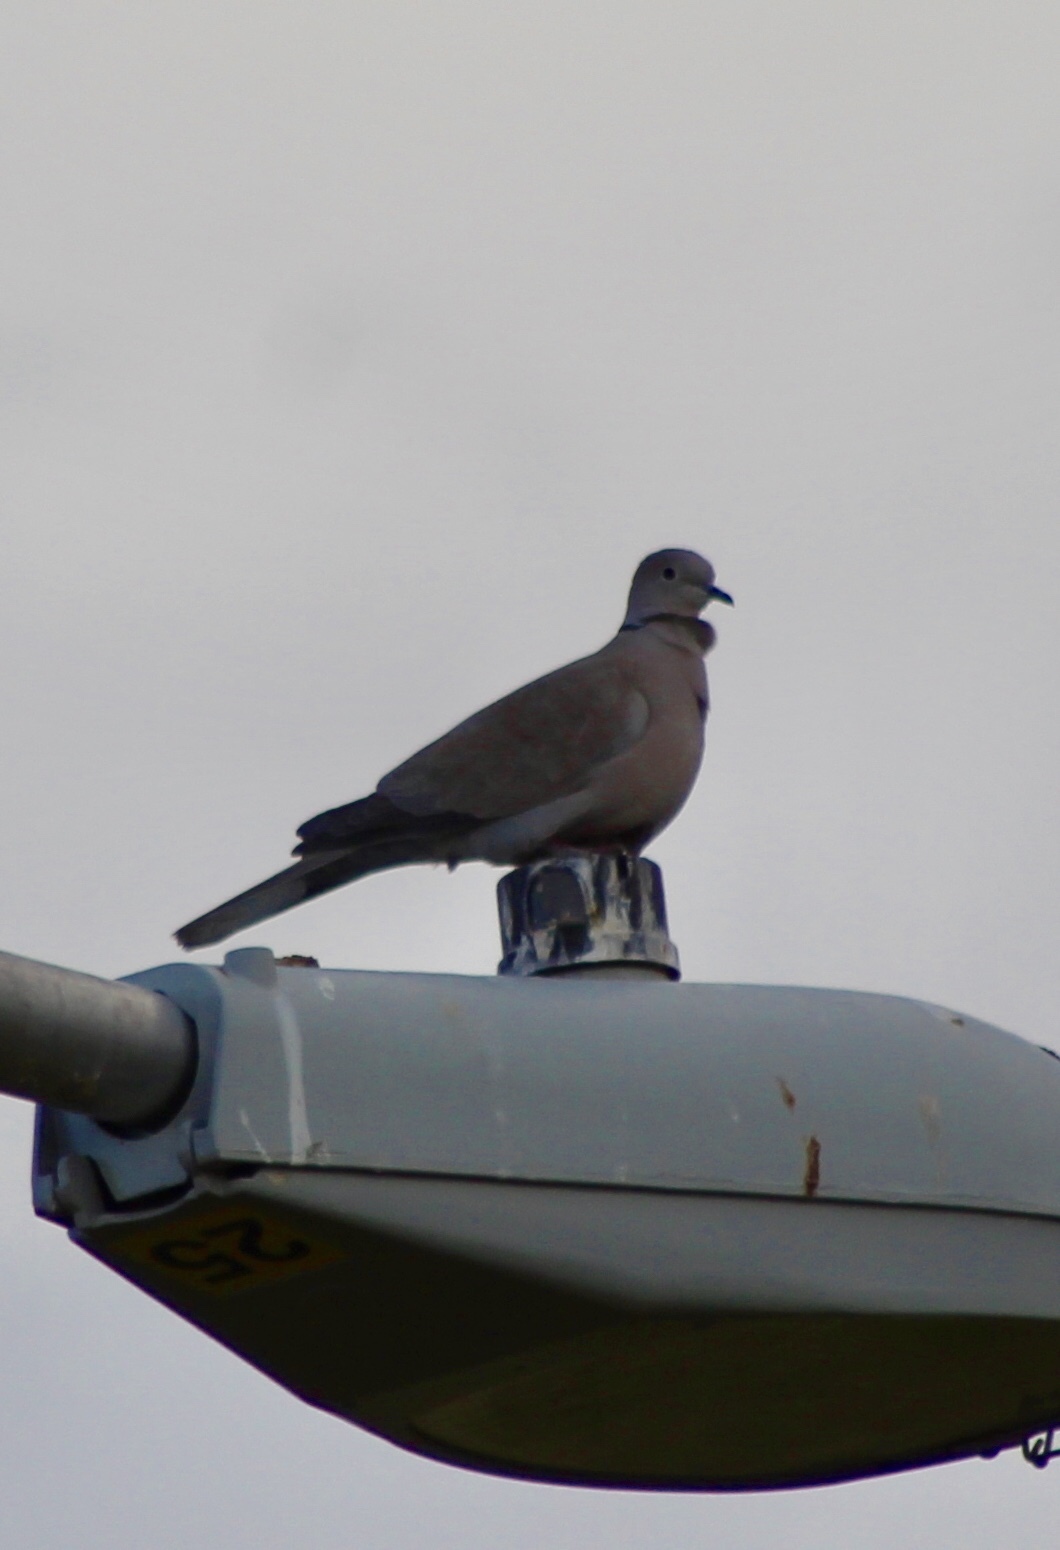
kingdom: Animalia
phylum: Chordata
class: Aves
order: Columbiformes
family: Columbidae
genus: Streptopelia
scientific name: Streptopelia decaocto
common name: Eurasian collared dove
